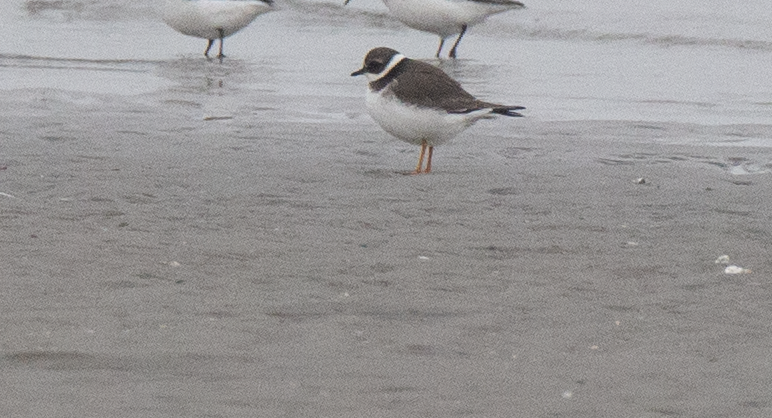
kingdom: Animalia
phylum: Chordata
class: Aves
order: Charadriiformes
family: Charadriidae
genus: Charadrius
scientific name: Charadrius hiaticula
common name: Common ringed plover
